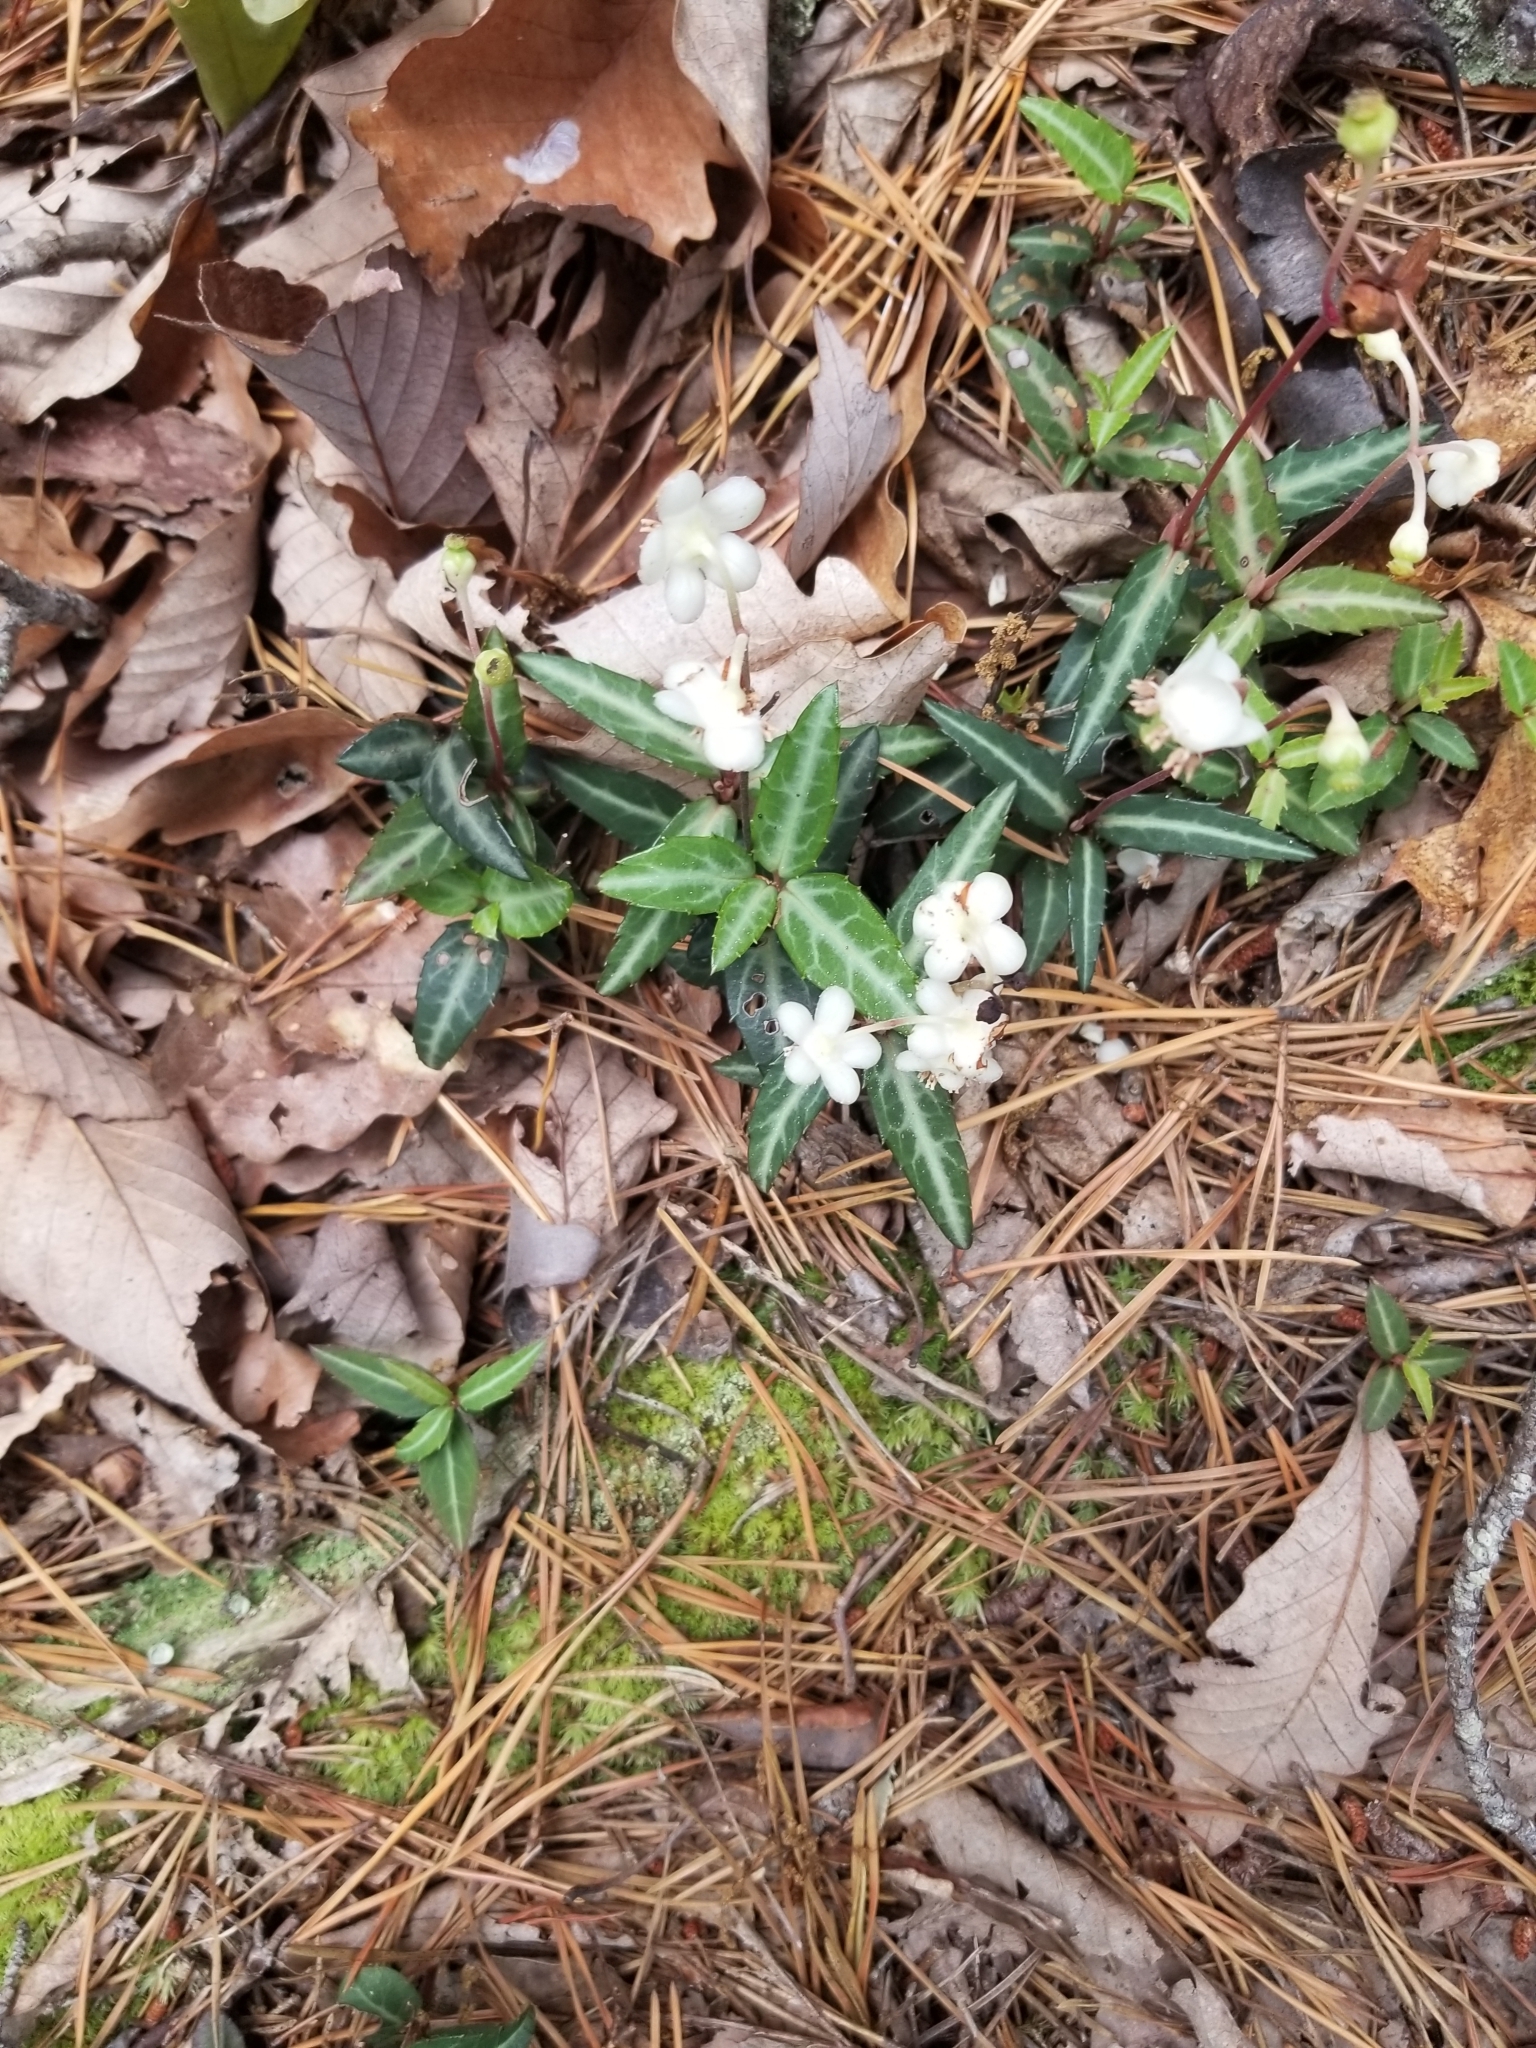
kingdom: Plantae
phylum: Tracheophyta
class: Magnoliopsida
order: Ericales
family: Ericaceae
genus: Chimaphila
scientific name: Chimaphila maculata
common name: Spotted pipsissewa
